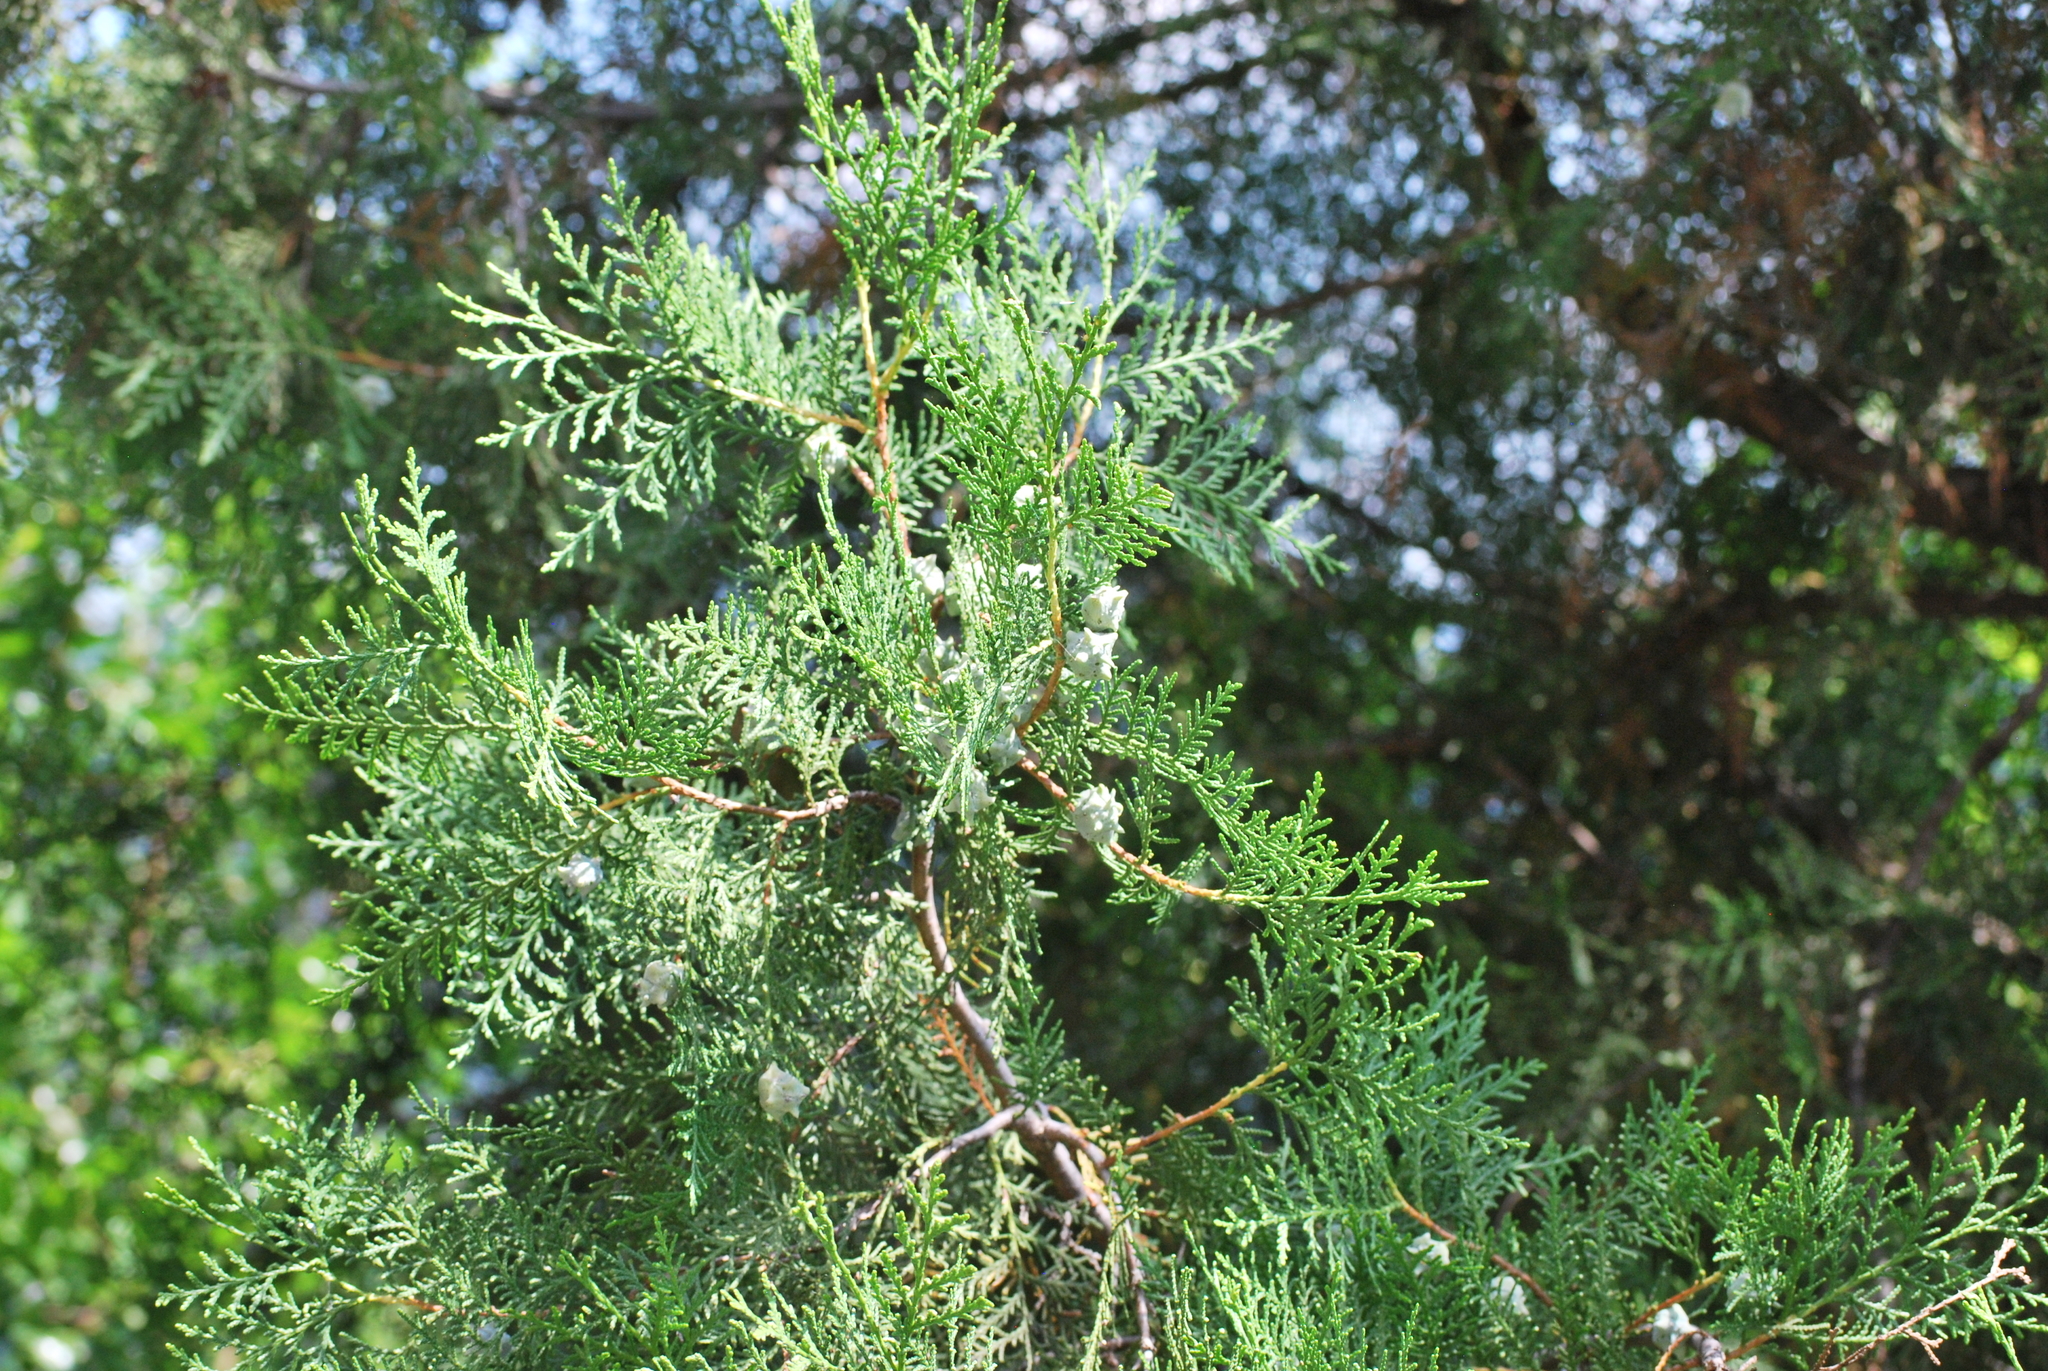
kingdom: Plantae
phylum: Tracheophyta
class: Pinopsida
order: Pinales
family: Cupressaceae
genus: Platycladus
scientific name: Platycladus orientalis
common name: Chinese thuja
